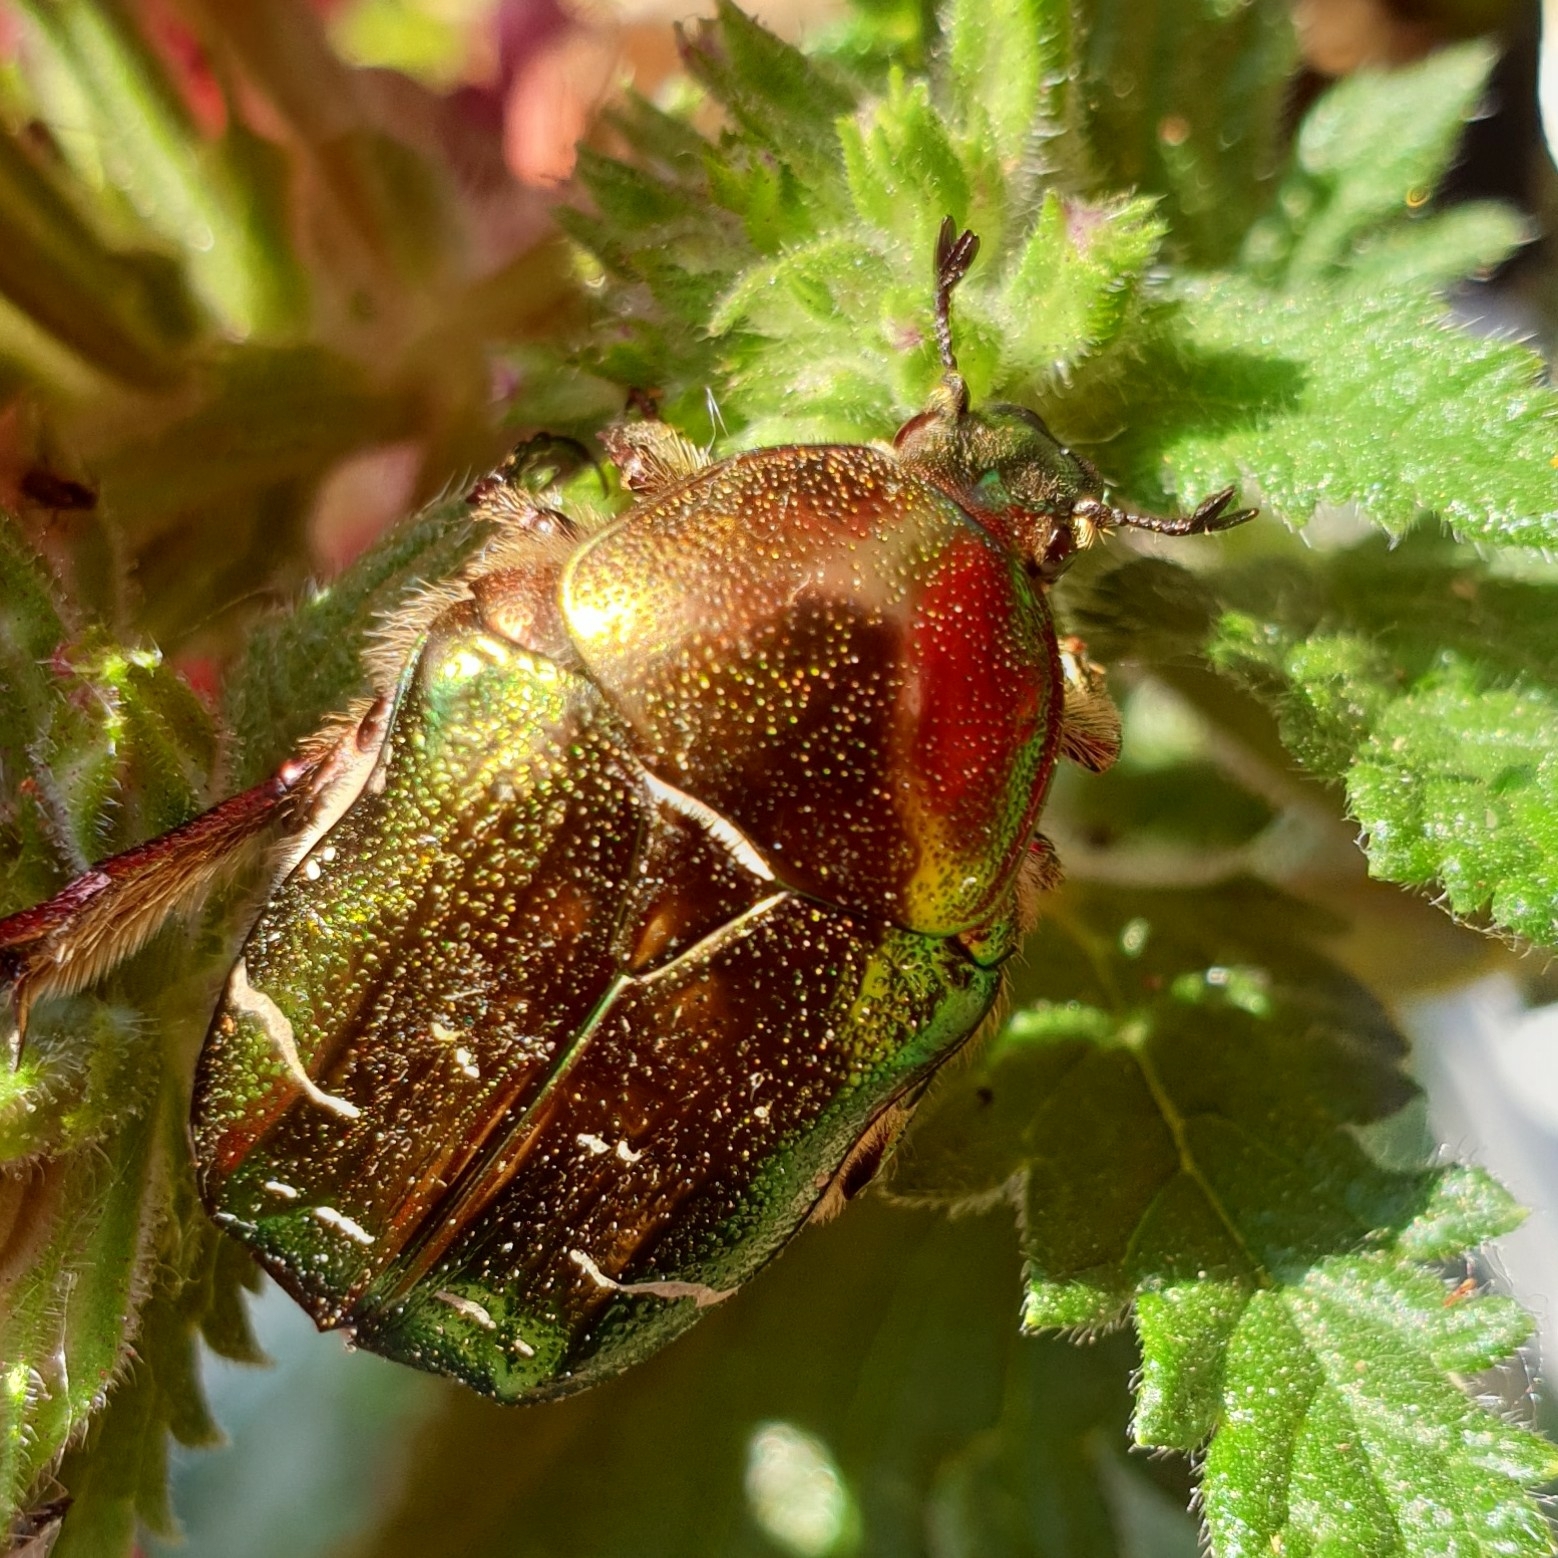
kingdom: Animalia
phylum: Arthropoda
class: Insecta
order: Coleoptera
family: Scarabaeidae
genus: Cetonia
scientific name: Cetonia aurata
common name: Rose chafer
